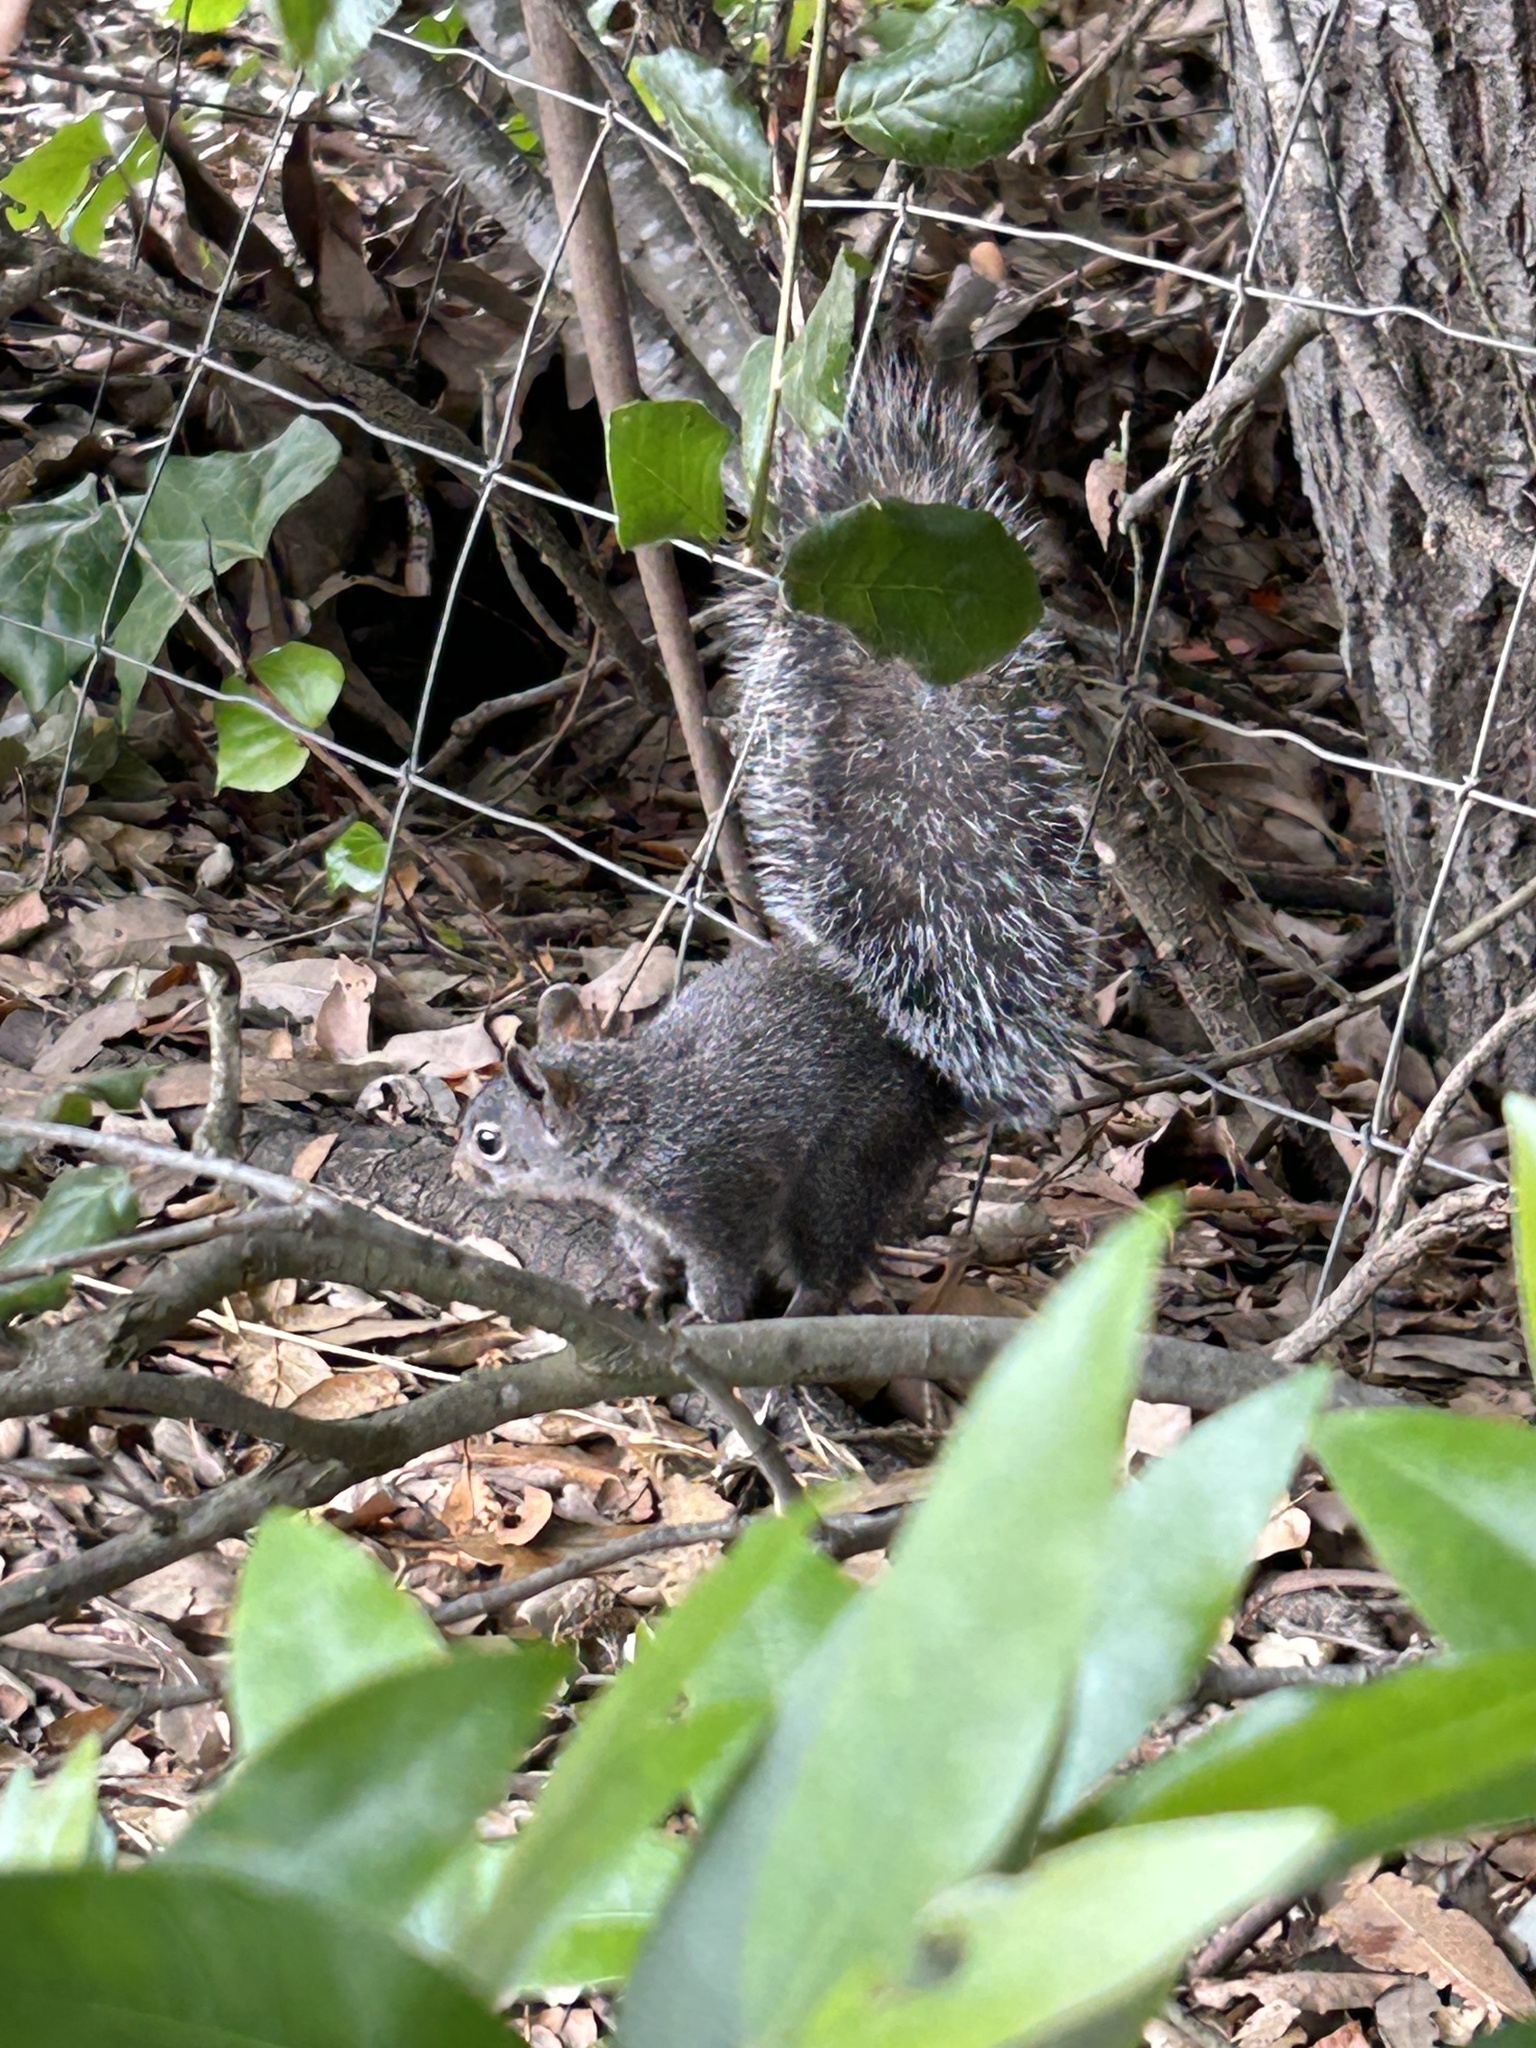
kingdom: Animalia
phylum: Chordata
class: Mammalia
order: Rodentia
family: Sciuridae
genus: Sciurus
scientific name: Sciurus griseus
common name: Western gray squirrel
